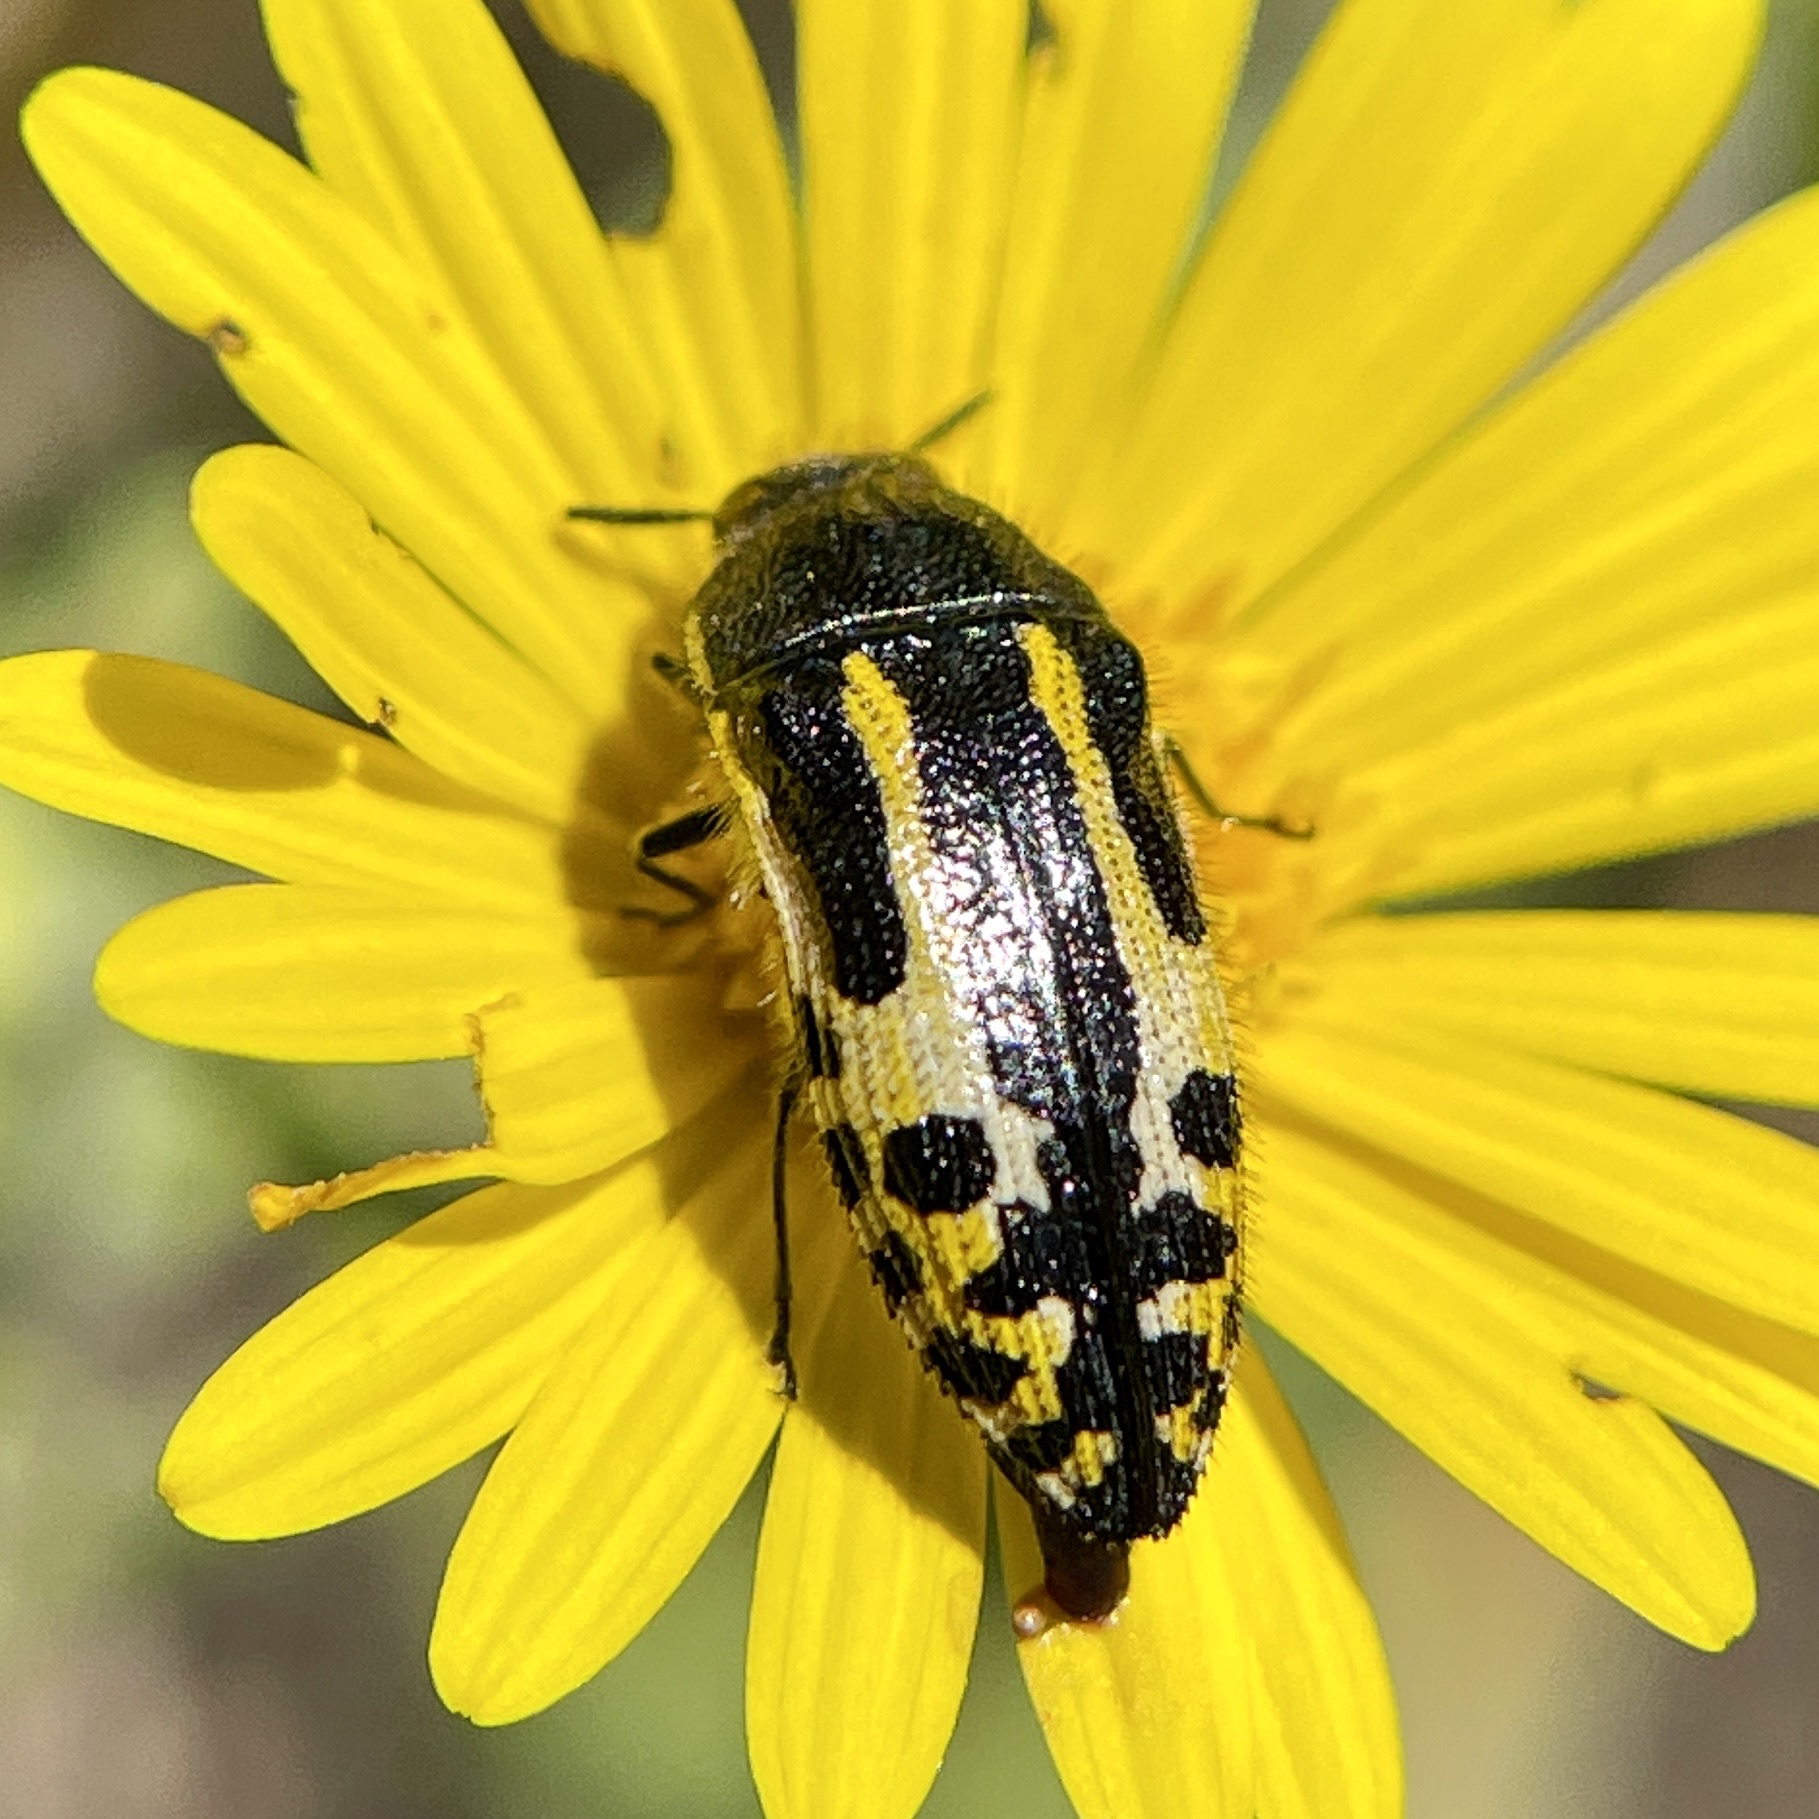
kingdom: Animalia
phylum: Arthropoda
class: Insecta
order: Coleoptera
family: Buprestidae
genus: Acmaeodera
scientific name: Acmaeodera scalaris
